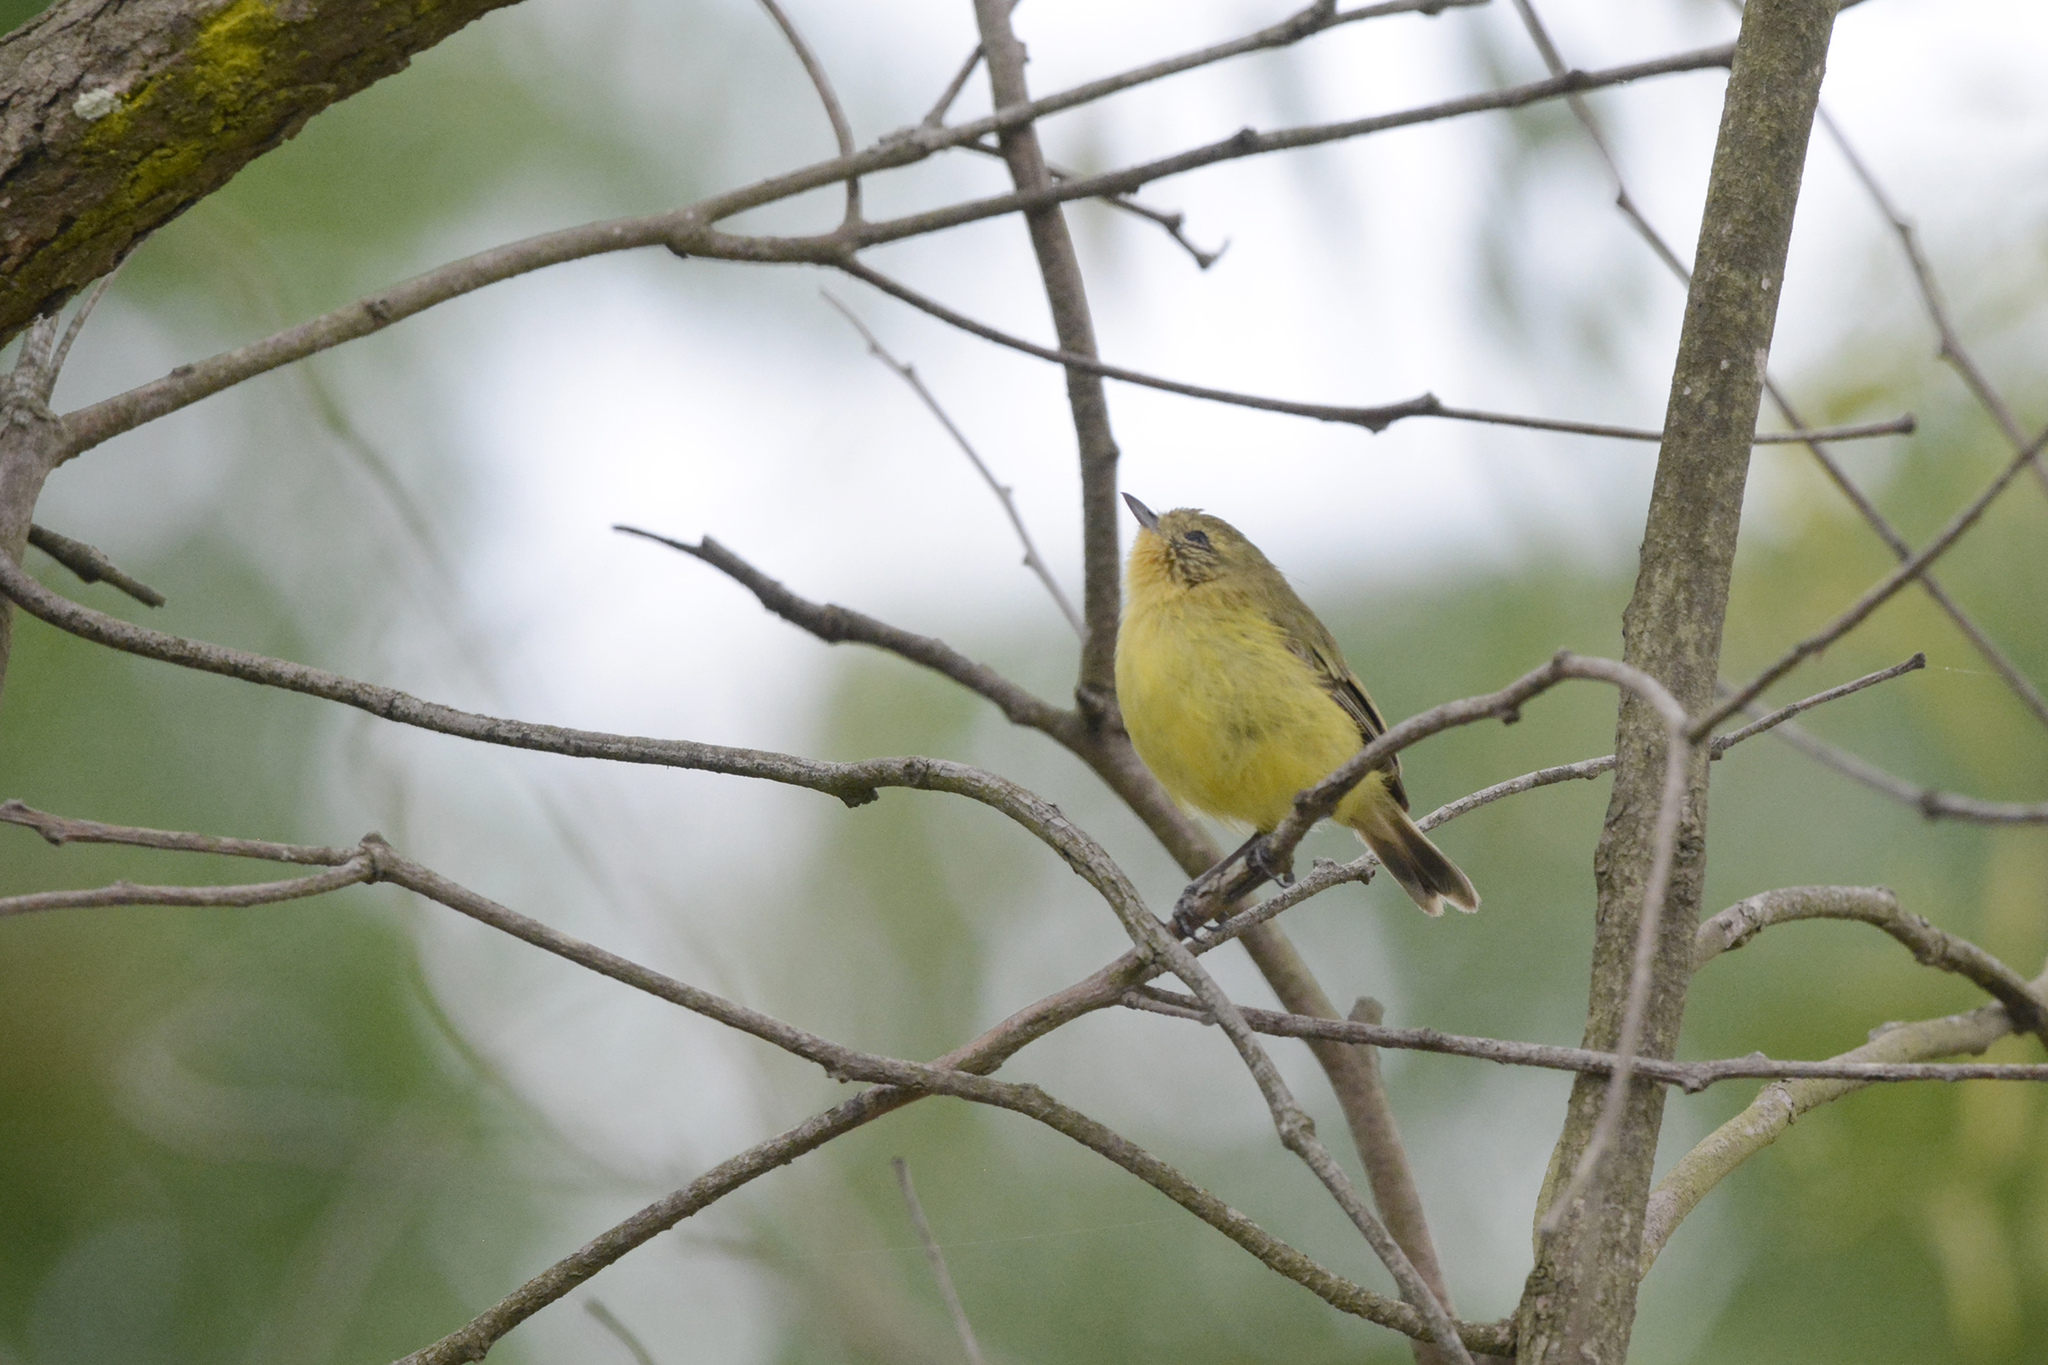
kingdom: Animalia
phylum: Chordata
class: Aves
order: Passeriformes
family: Acanthizidae
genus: Acanthiza
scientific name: Acanthiza nana
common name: Yellow thornbill
